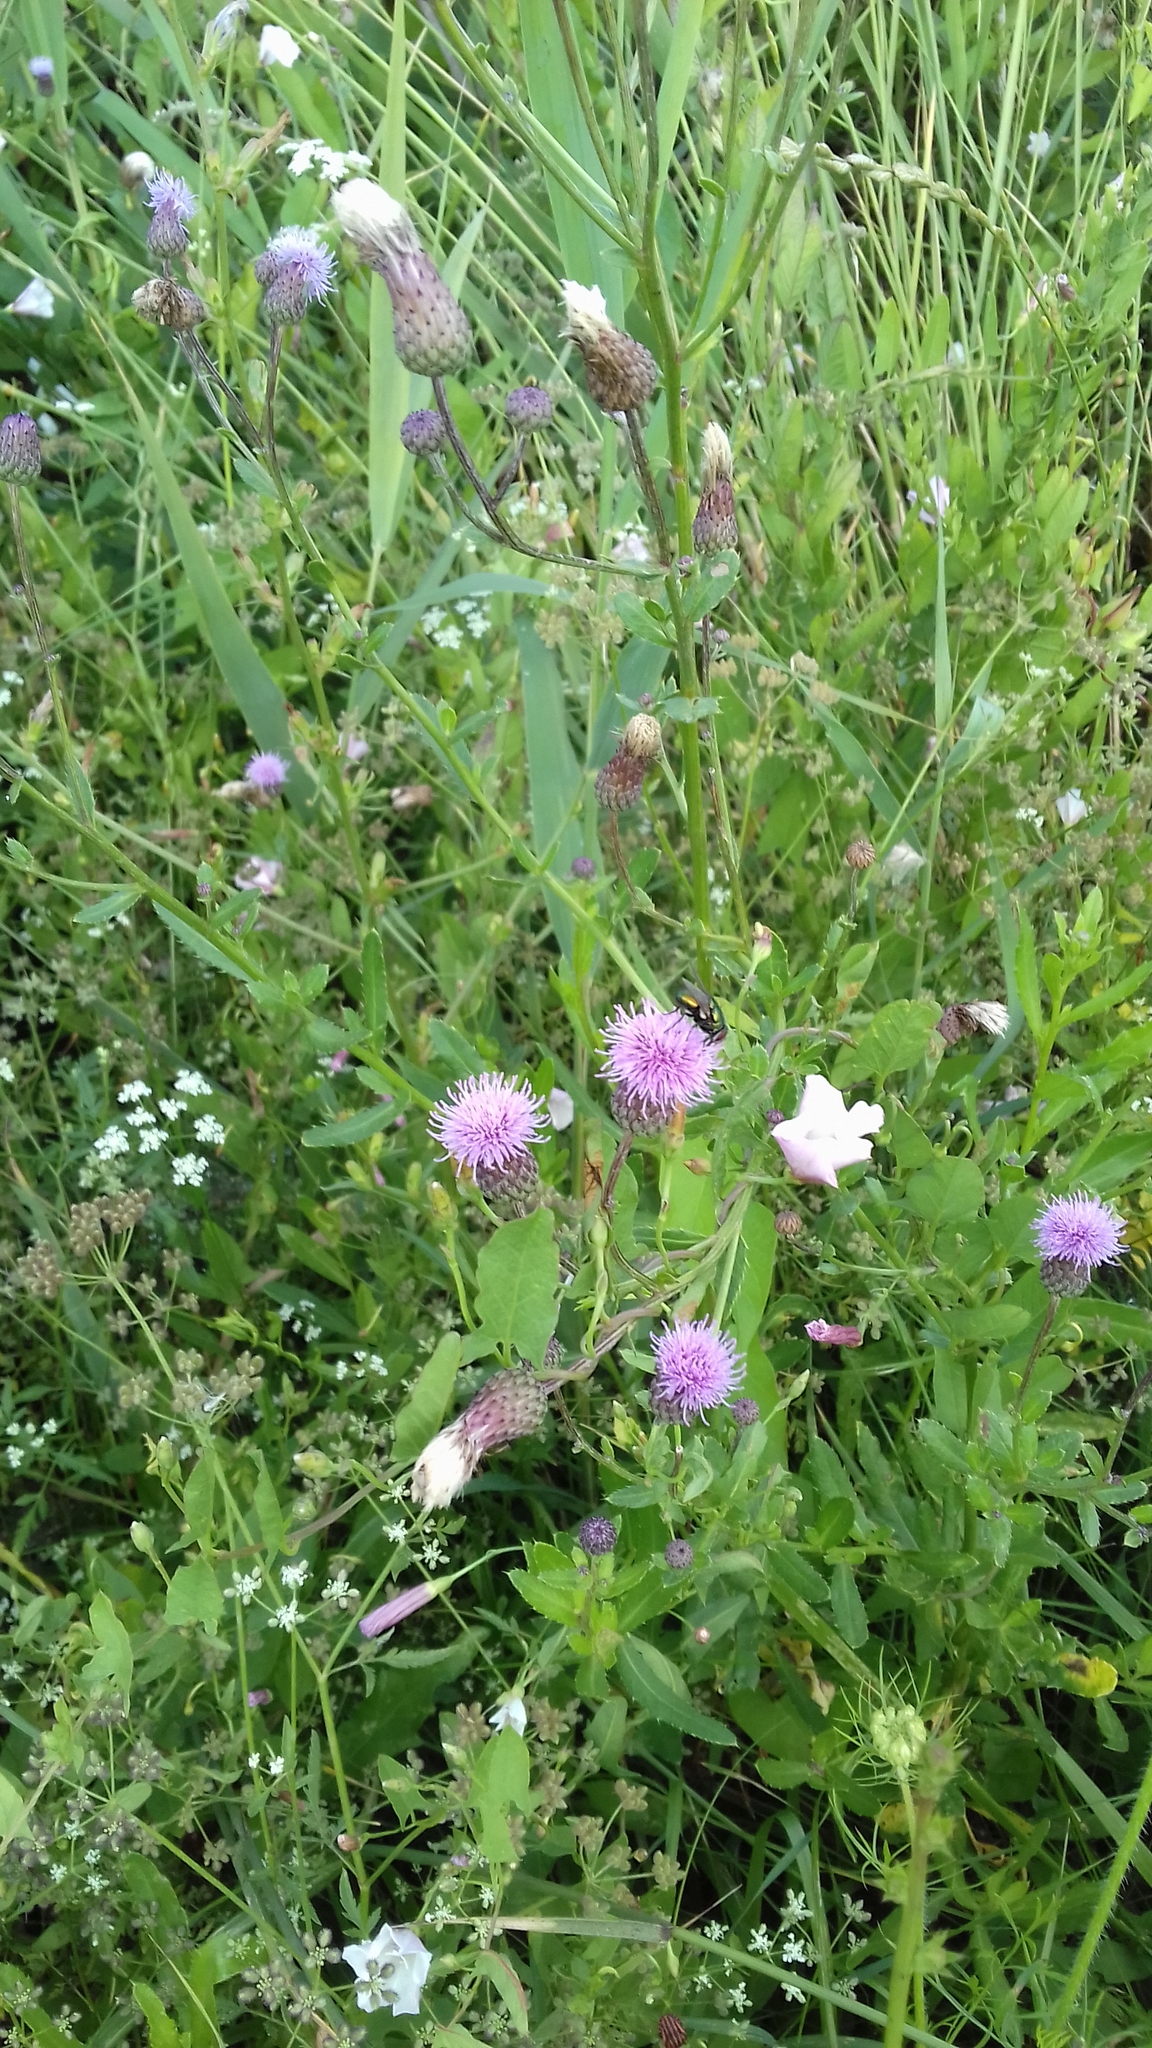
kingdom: Plantae
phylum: Tracheophyta
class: Magnoliopsida
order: Asterales
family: Asteraceae
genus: Cirsium
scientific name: Cirsium arvense
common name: Creeping thistle
